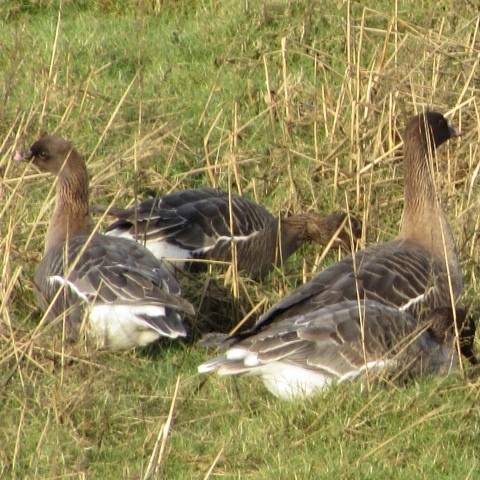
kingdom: Animalia
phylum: Chordata
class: Aves
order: Anseriformes
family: Anatidae
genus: Anser
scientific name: Anser brachyrhynchus
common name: Pink-footed goose
